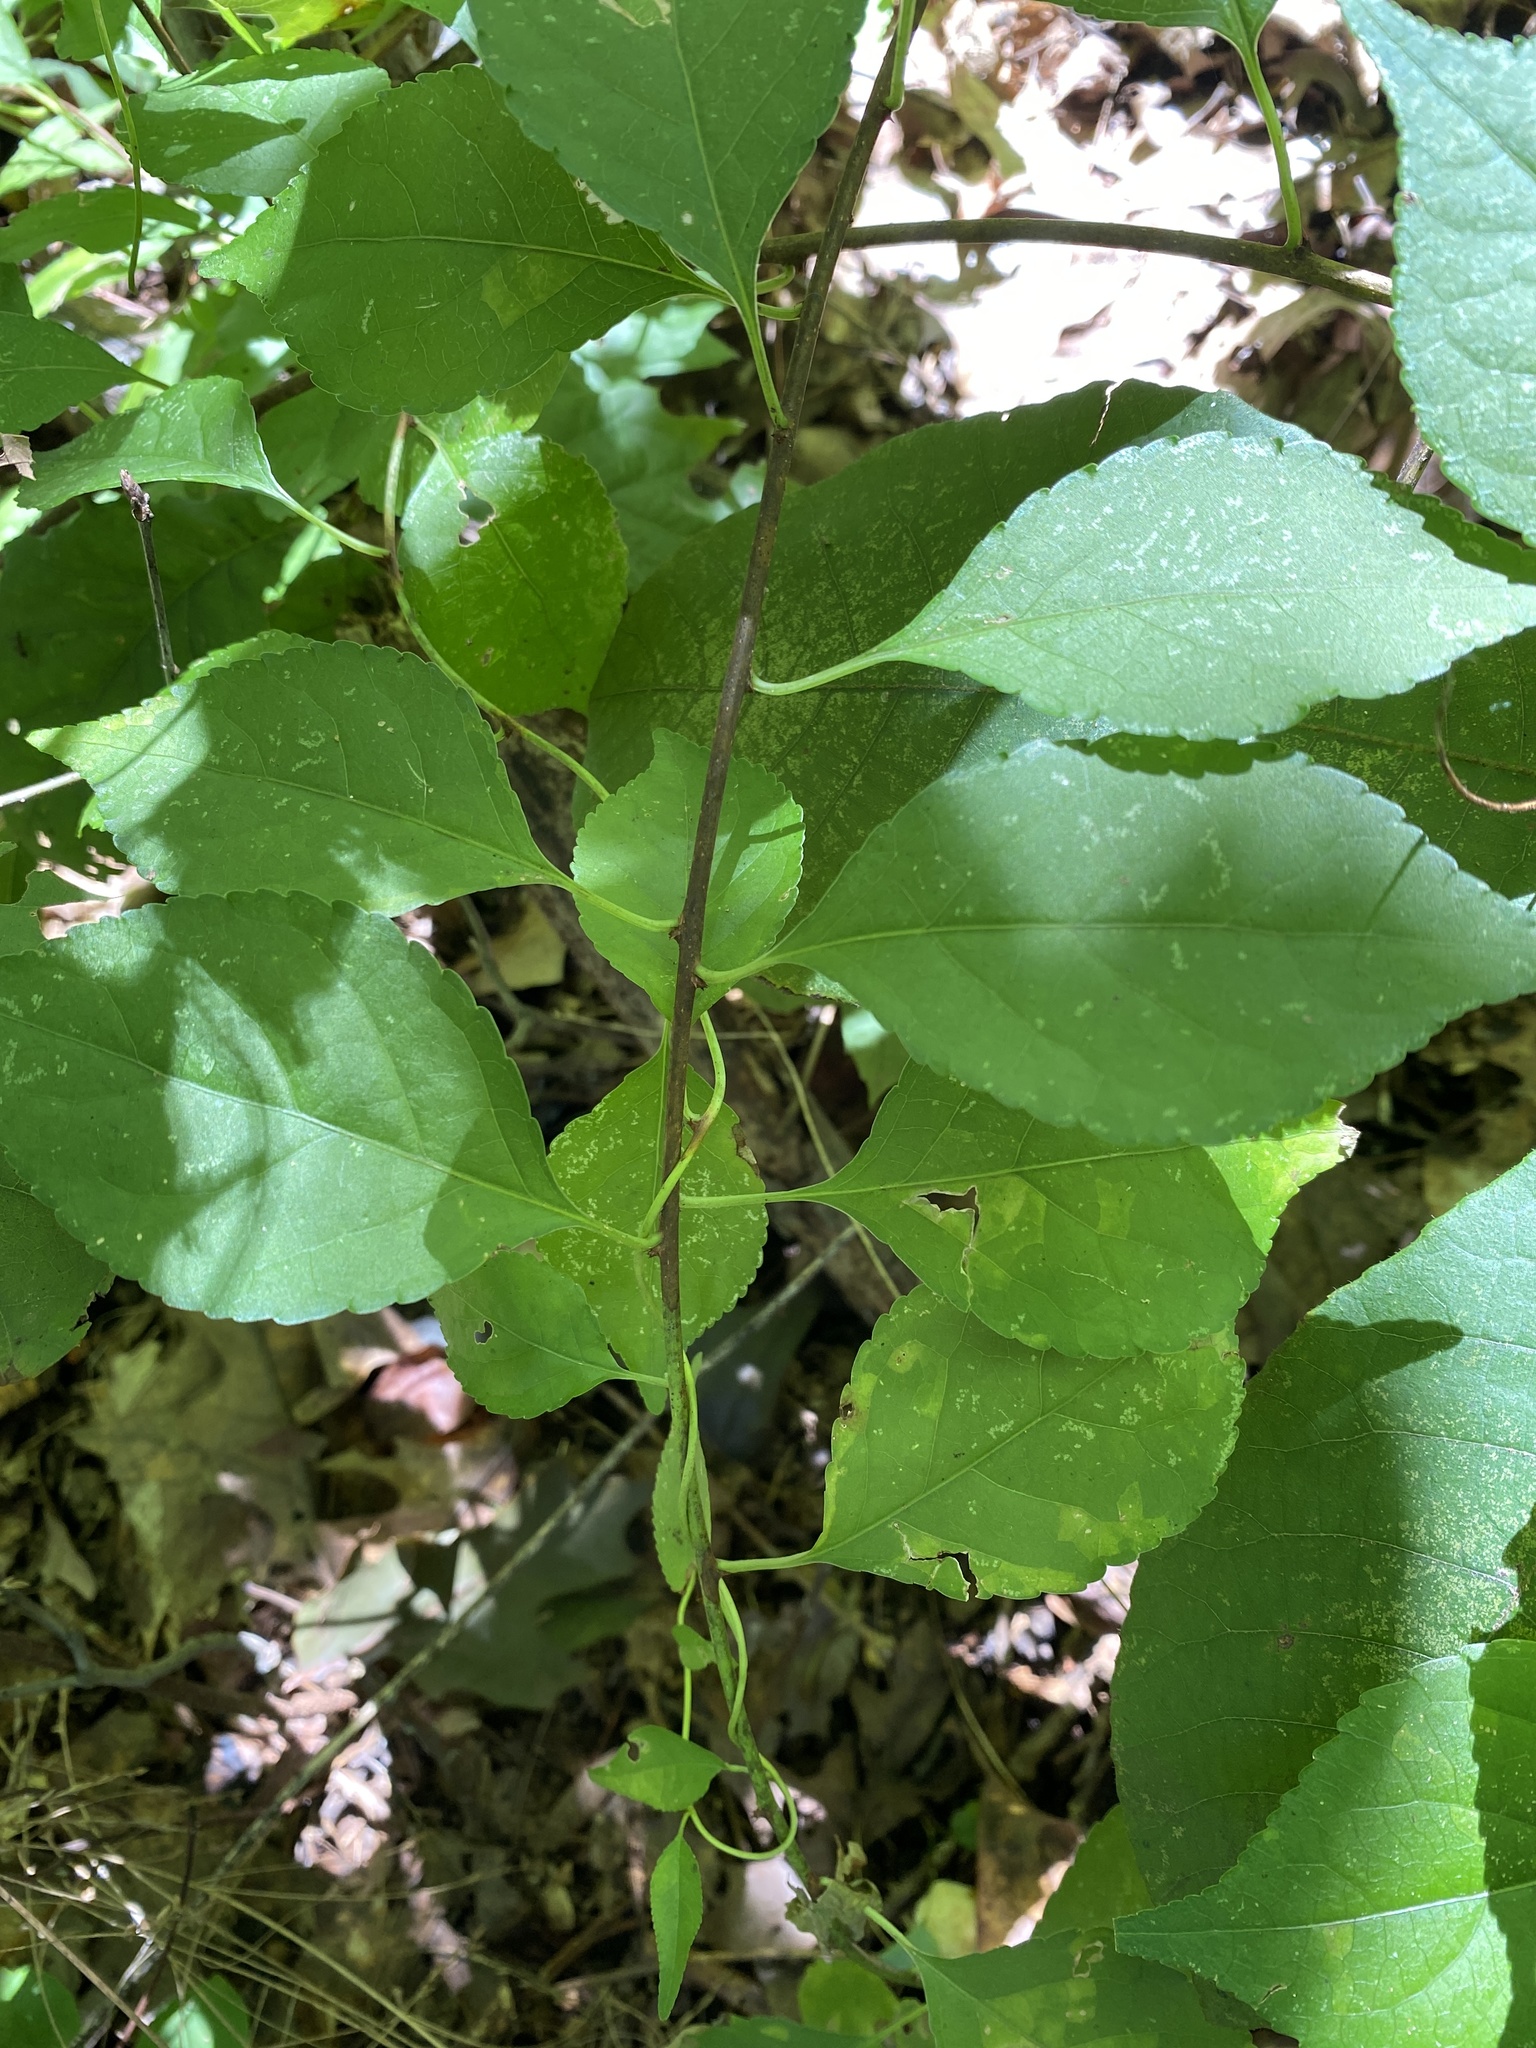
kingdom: Plantae
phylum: Tracheophyta
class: Magnoliopsida
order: Celastrales
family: Celastraceae
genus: Celastrus
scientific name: Celastrus orbiculatus
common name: Oriental bittersweet
